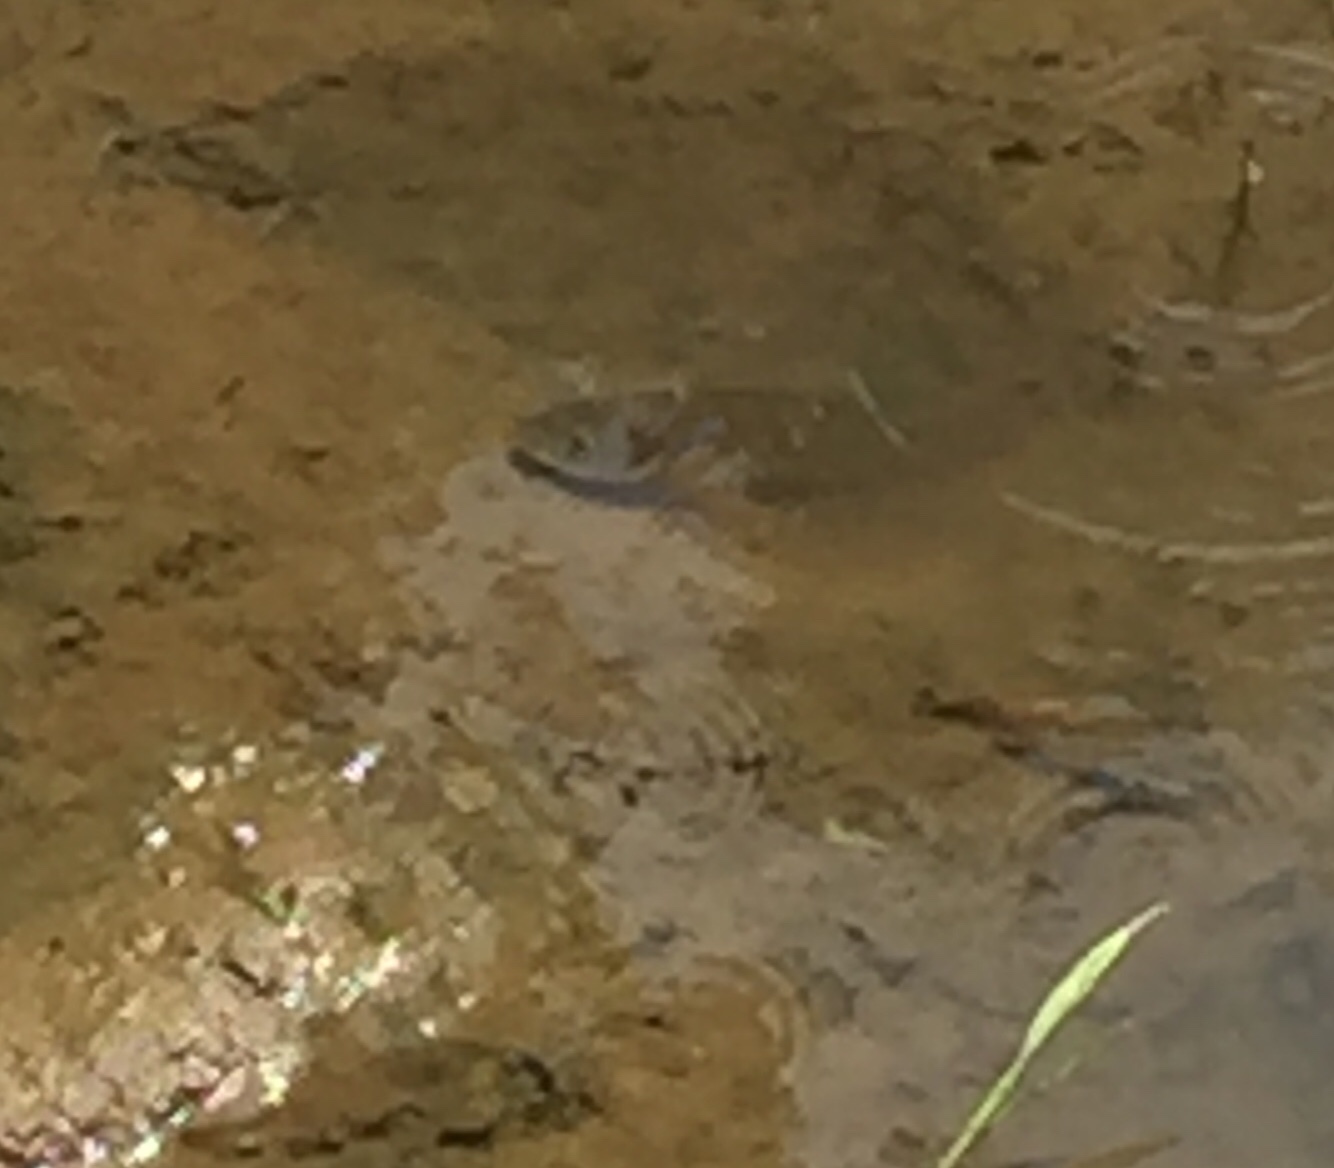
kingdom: Animalia
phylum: Chordata
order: Perciformes
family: Cichlidae
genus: Oreochromis
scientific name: Oreochromis niloticus
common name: Nile tilapia
